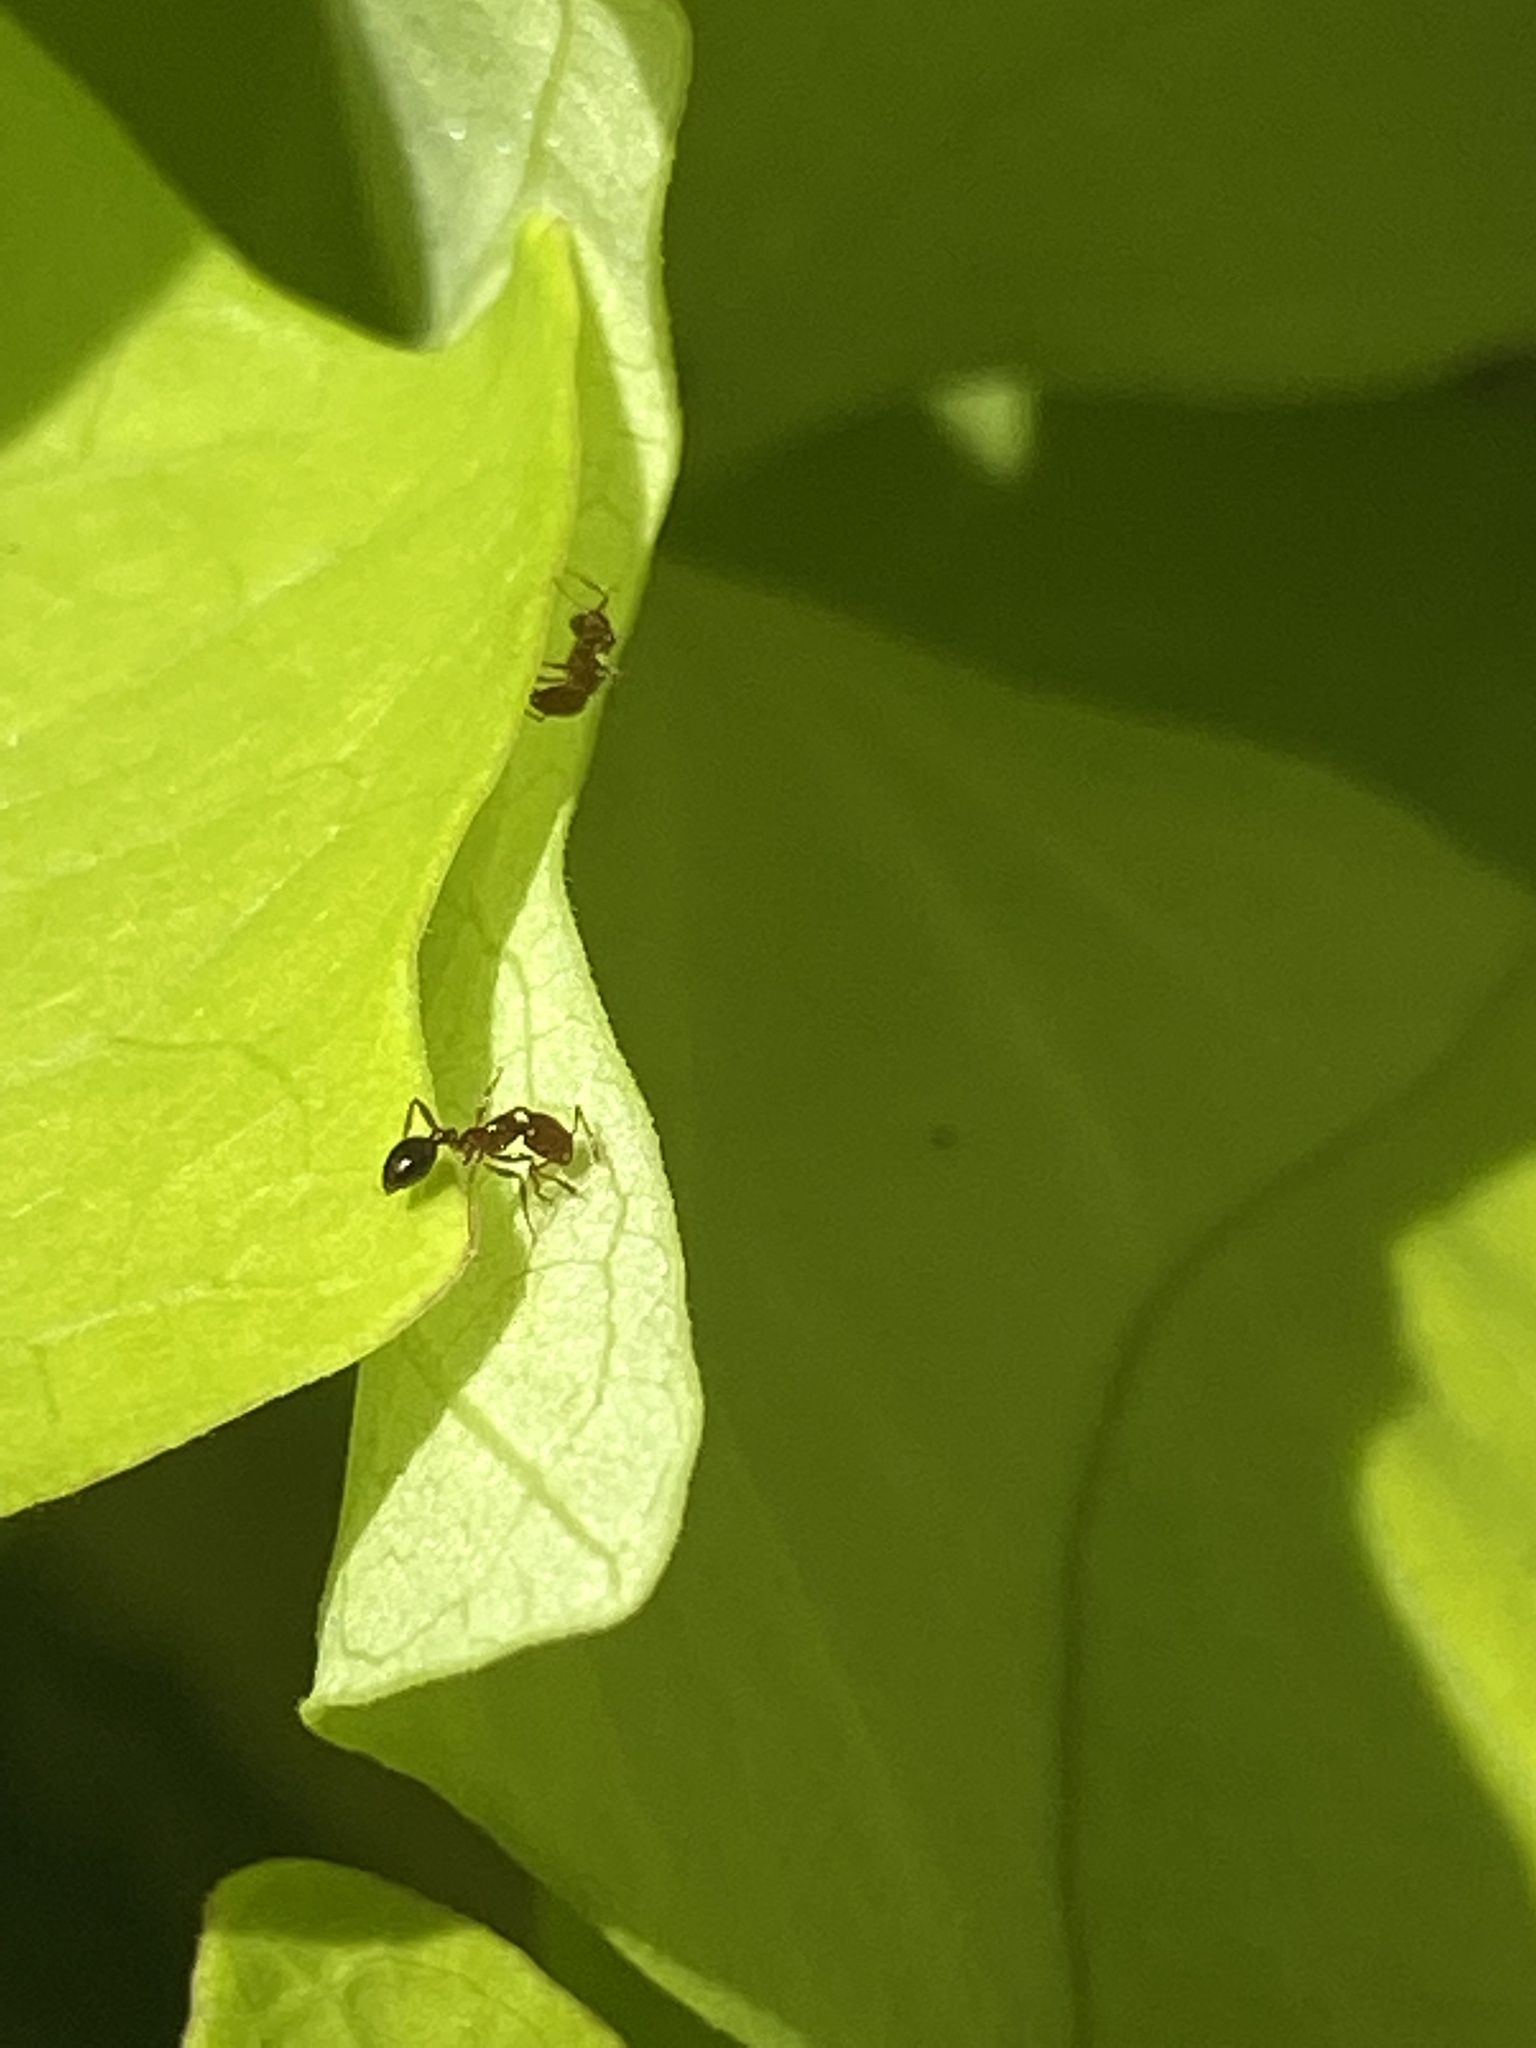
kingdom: Animalia
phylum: Arthropoda
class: Insecta
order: Hymenoptera
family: Formicidae
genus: Solenopsis
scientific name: Solenopsis invicta
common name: Red imported fire ant
